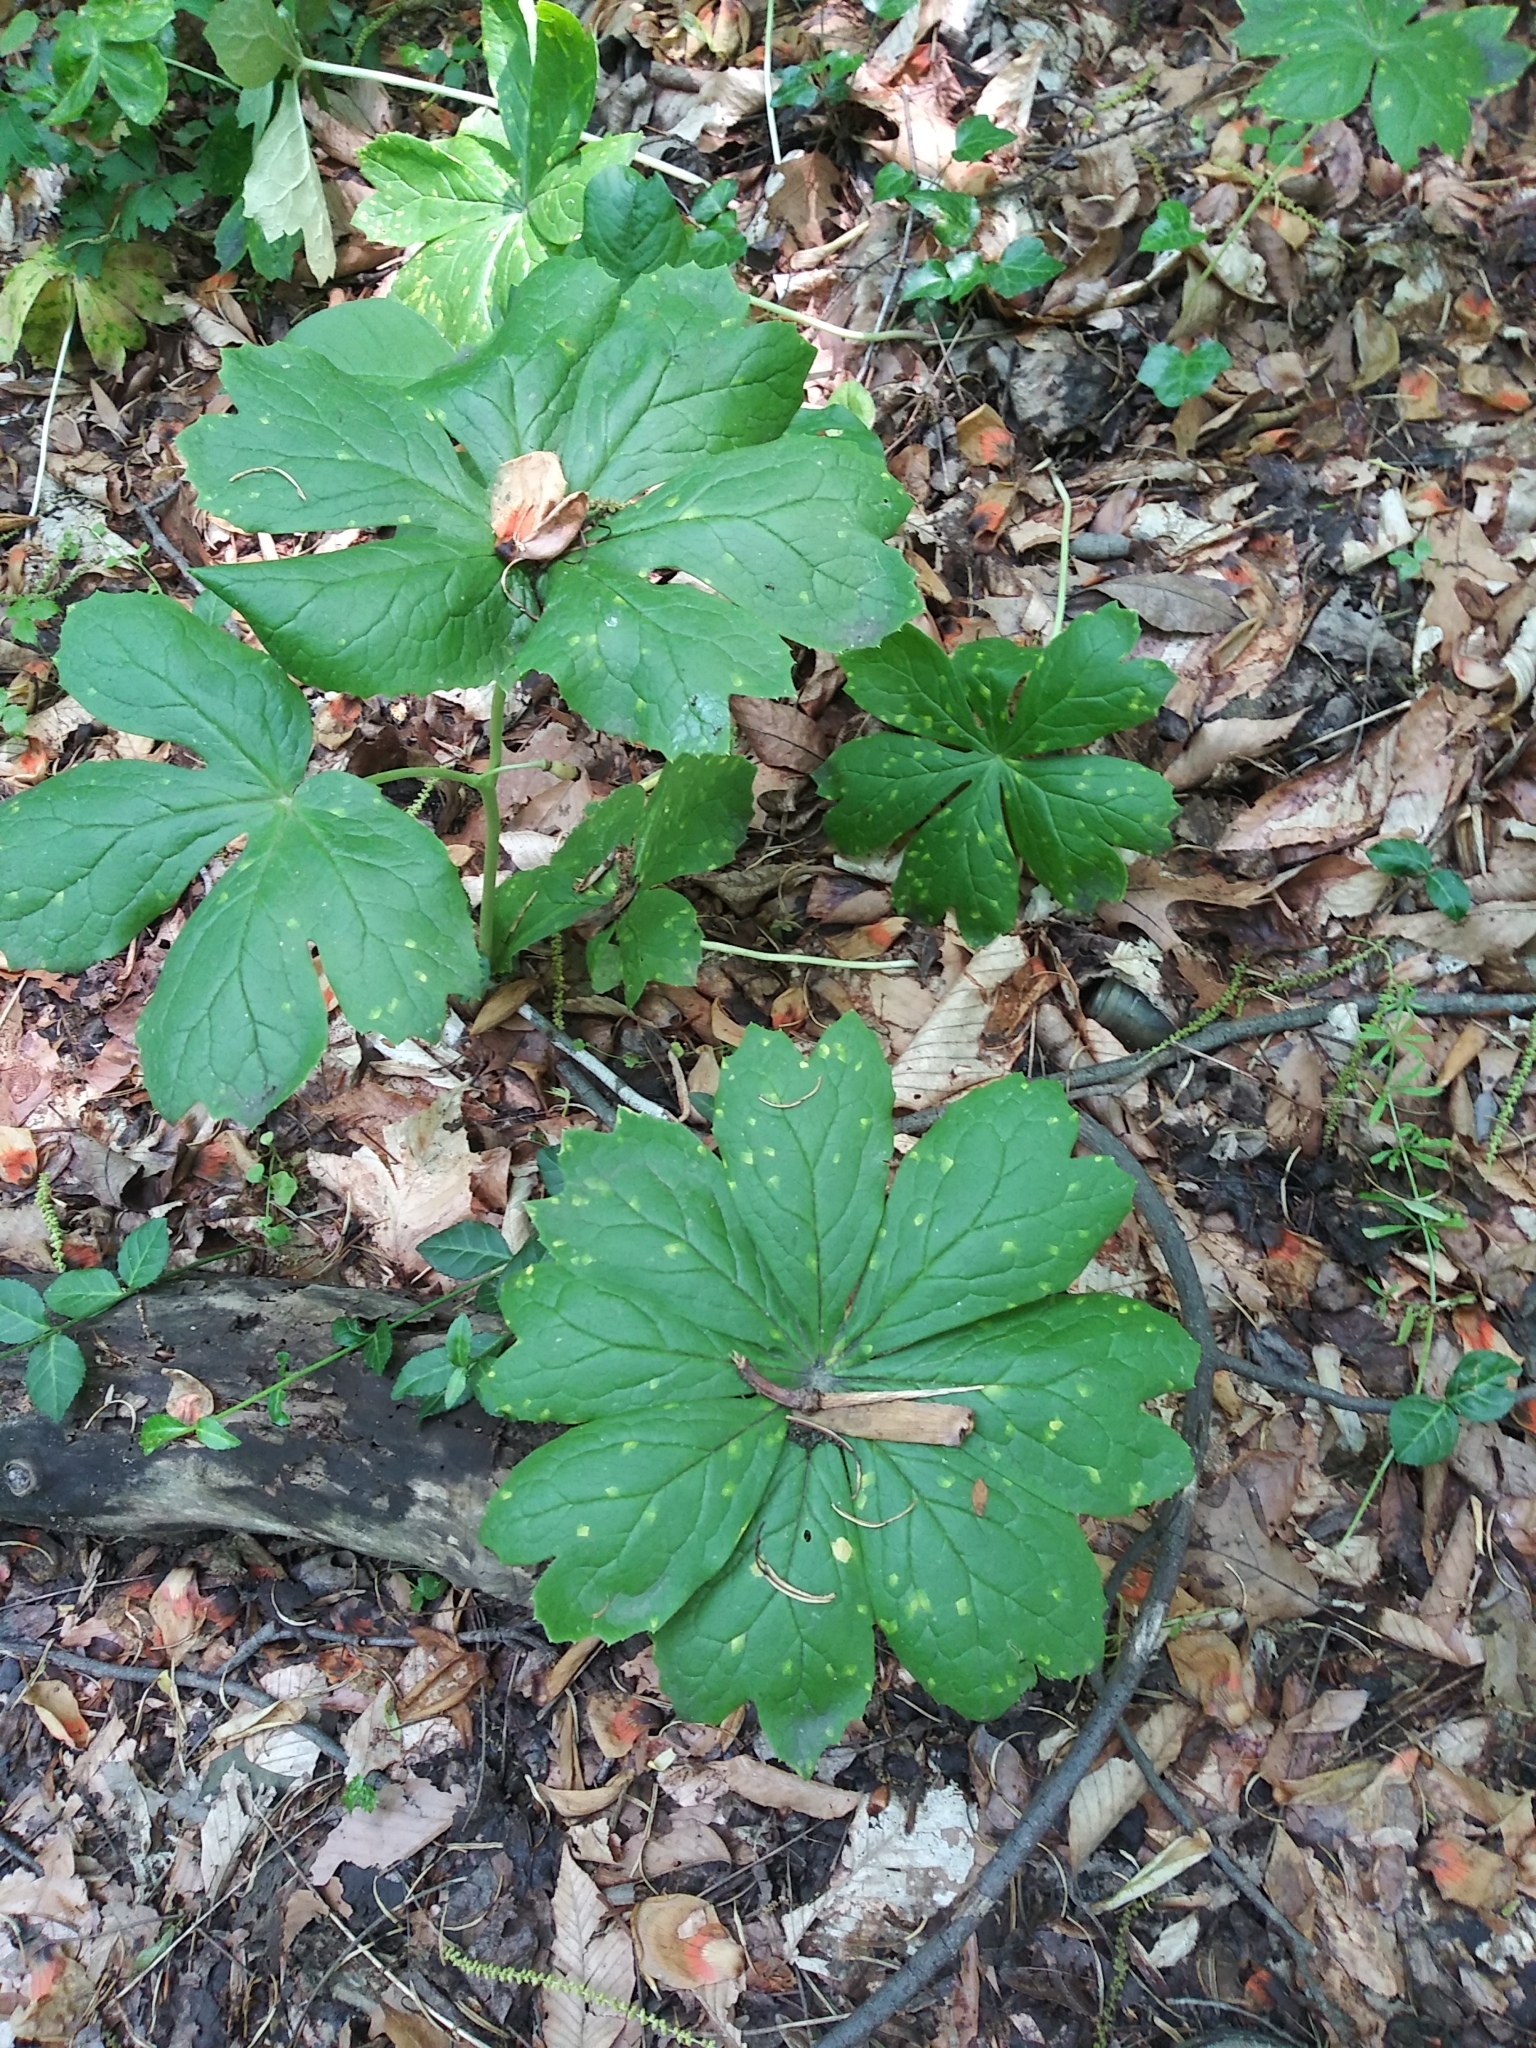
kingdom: Plantae
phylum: Tracheophyta
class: Magnoliopsida
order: Ranunculales
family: Berberidaceae
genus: Podophyllum
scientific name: Podophyllum peltatum
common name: Wild mandrake
